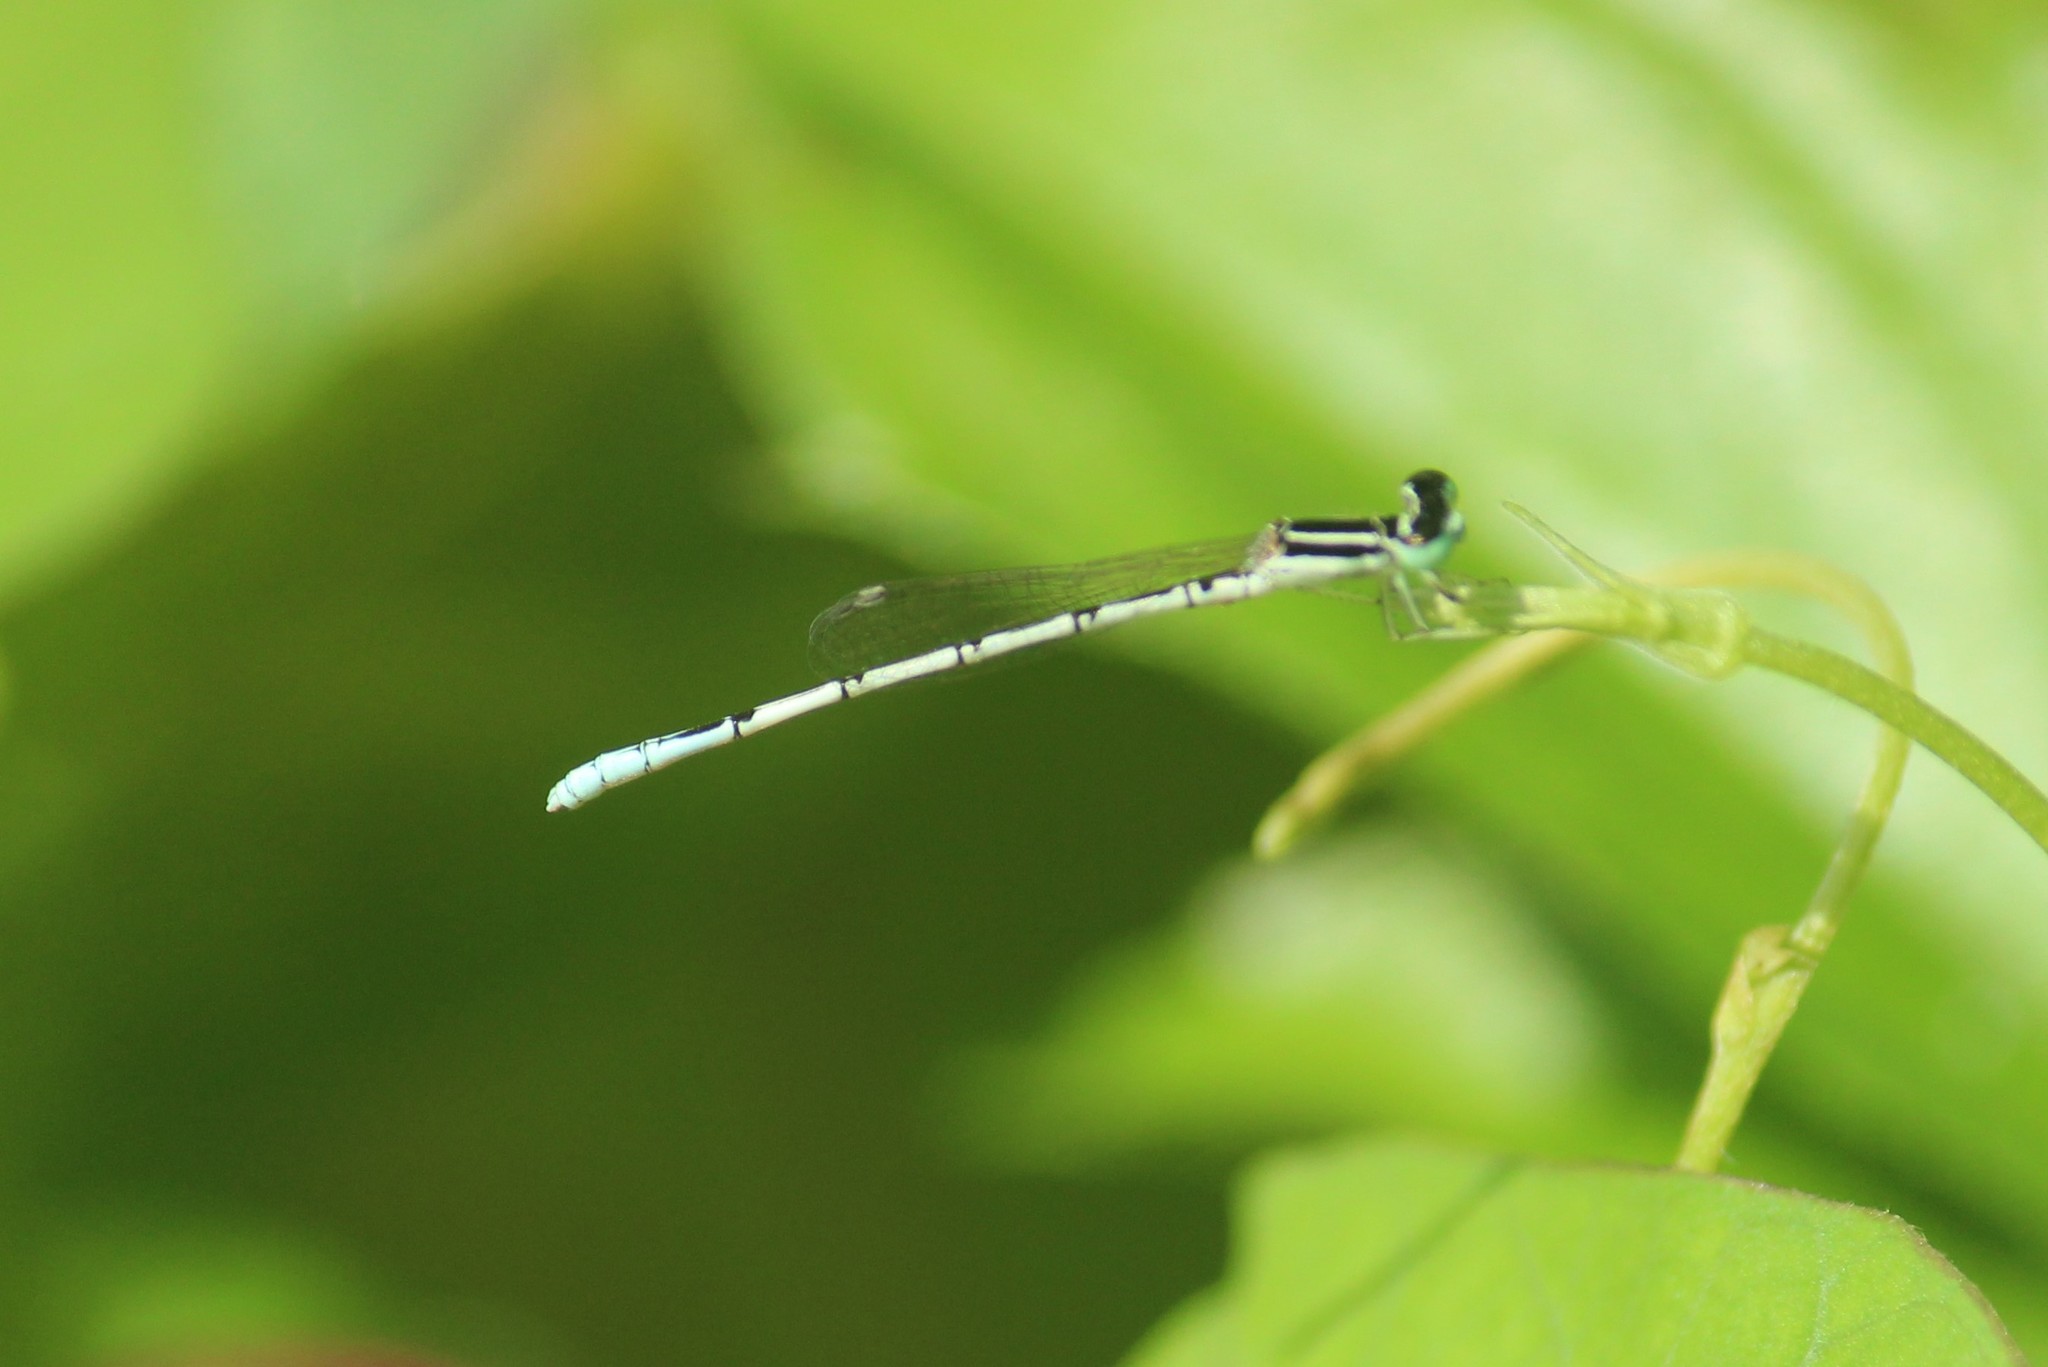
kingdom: Animalia
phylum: Arthropoda
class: Insecta
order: Odonata
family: Coenagrionidae
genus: Agriocnemis
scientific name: Agriocnemis pieris
